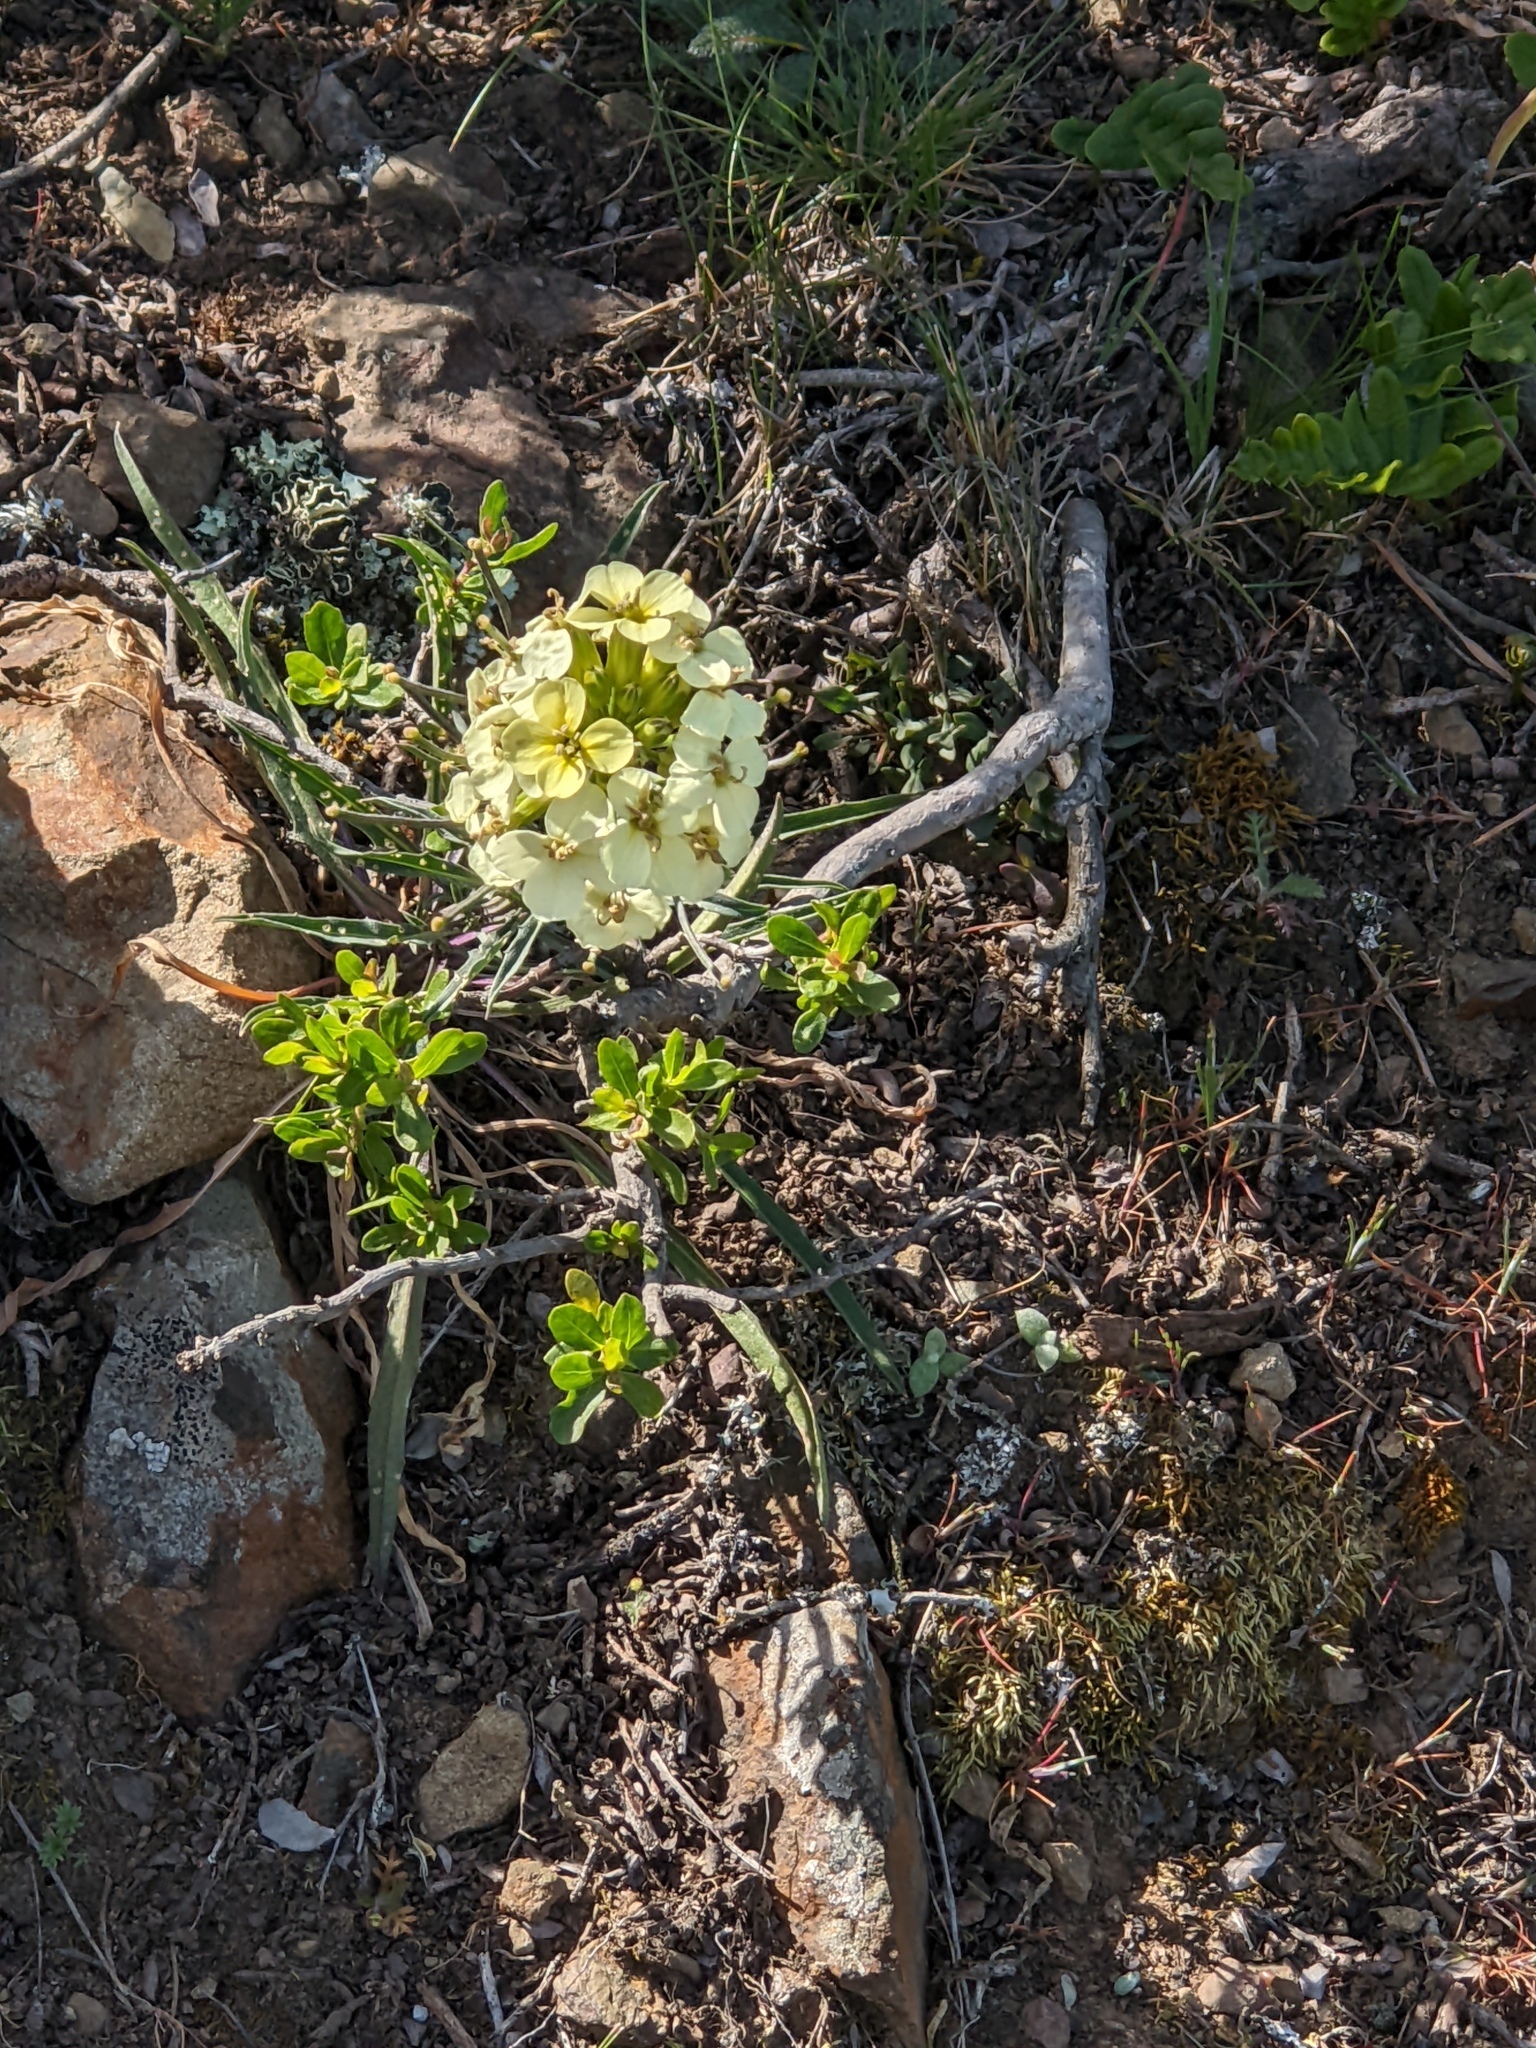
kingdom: Plantae
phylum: Tracheophyta
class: Magnoliopsida
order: Brassicales
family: Brassicaceae
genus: Erysimum
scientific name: Erysimum franciscanum
